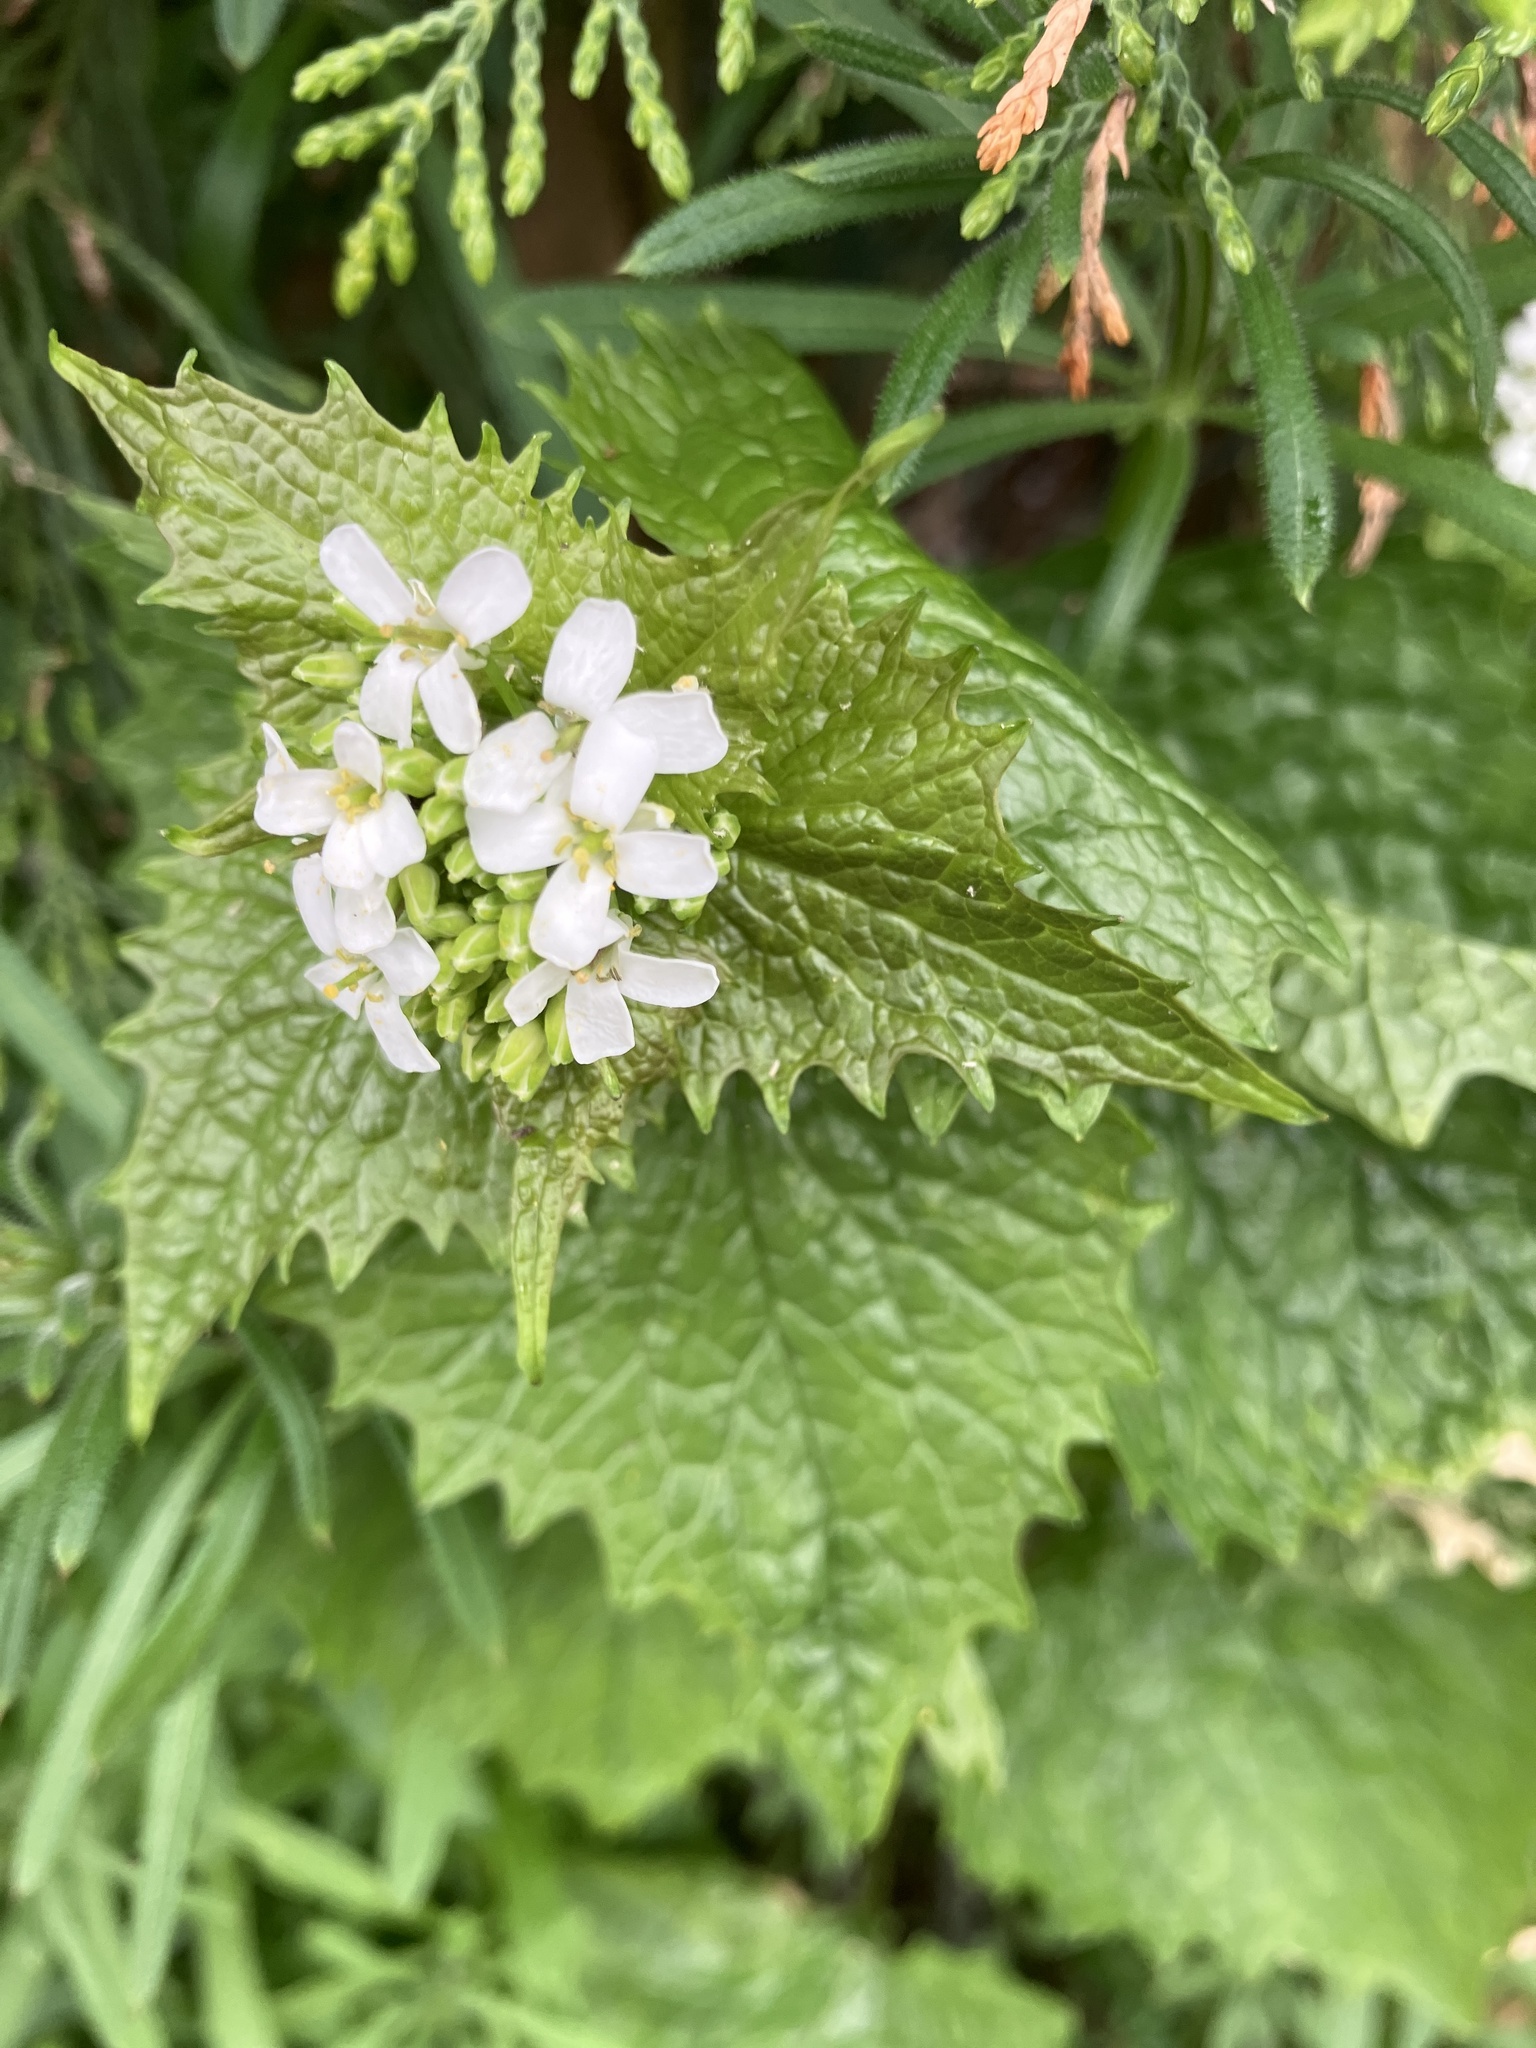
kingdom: Plantae
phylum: Tracheophyta
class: Magnoliopsida
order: Brassicales
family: Brassicaceae
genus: Alliaria
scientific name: Alliaria petiolata
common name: Garlic mustard
